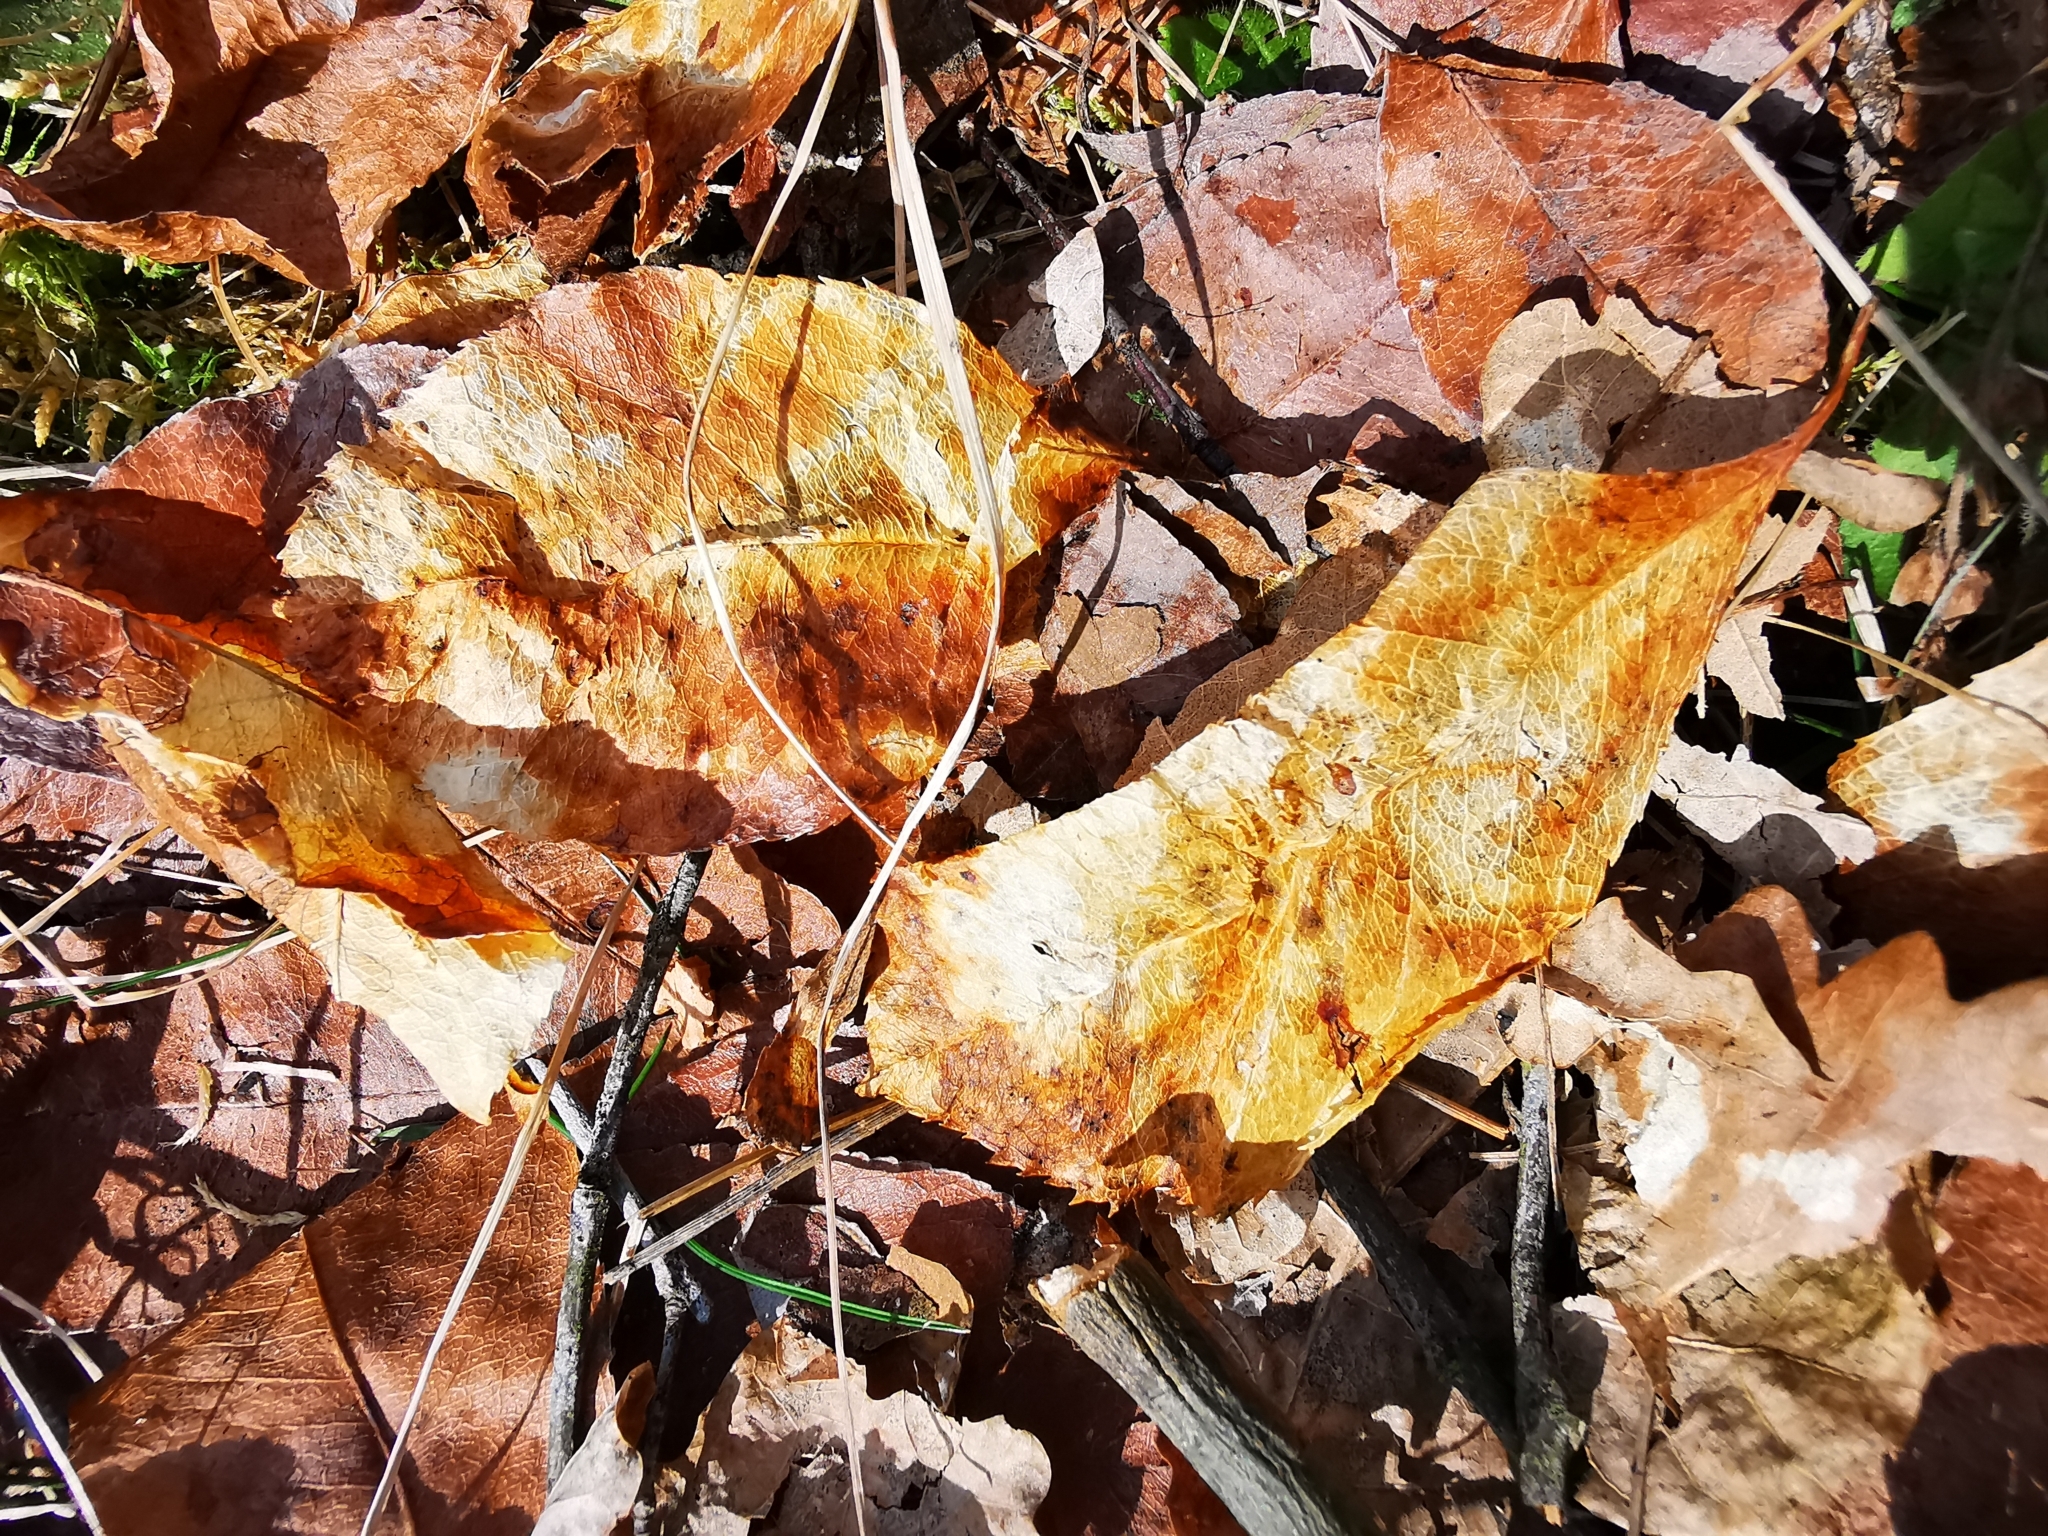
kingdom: Plantae
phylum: Tracheophyta
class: Magnoliopsida
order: Rosales
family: Rosaceae
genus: Prunus
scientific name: Prunus serotina
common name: Black cherry
